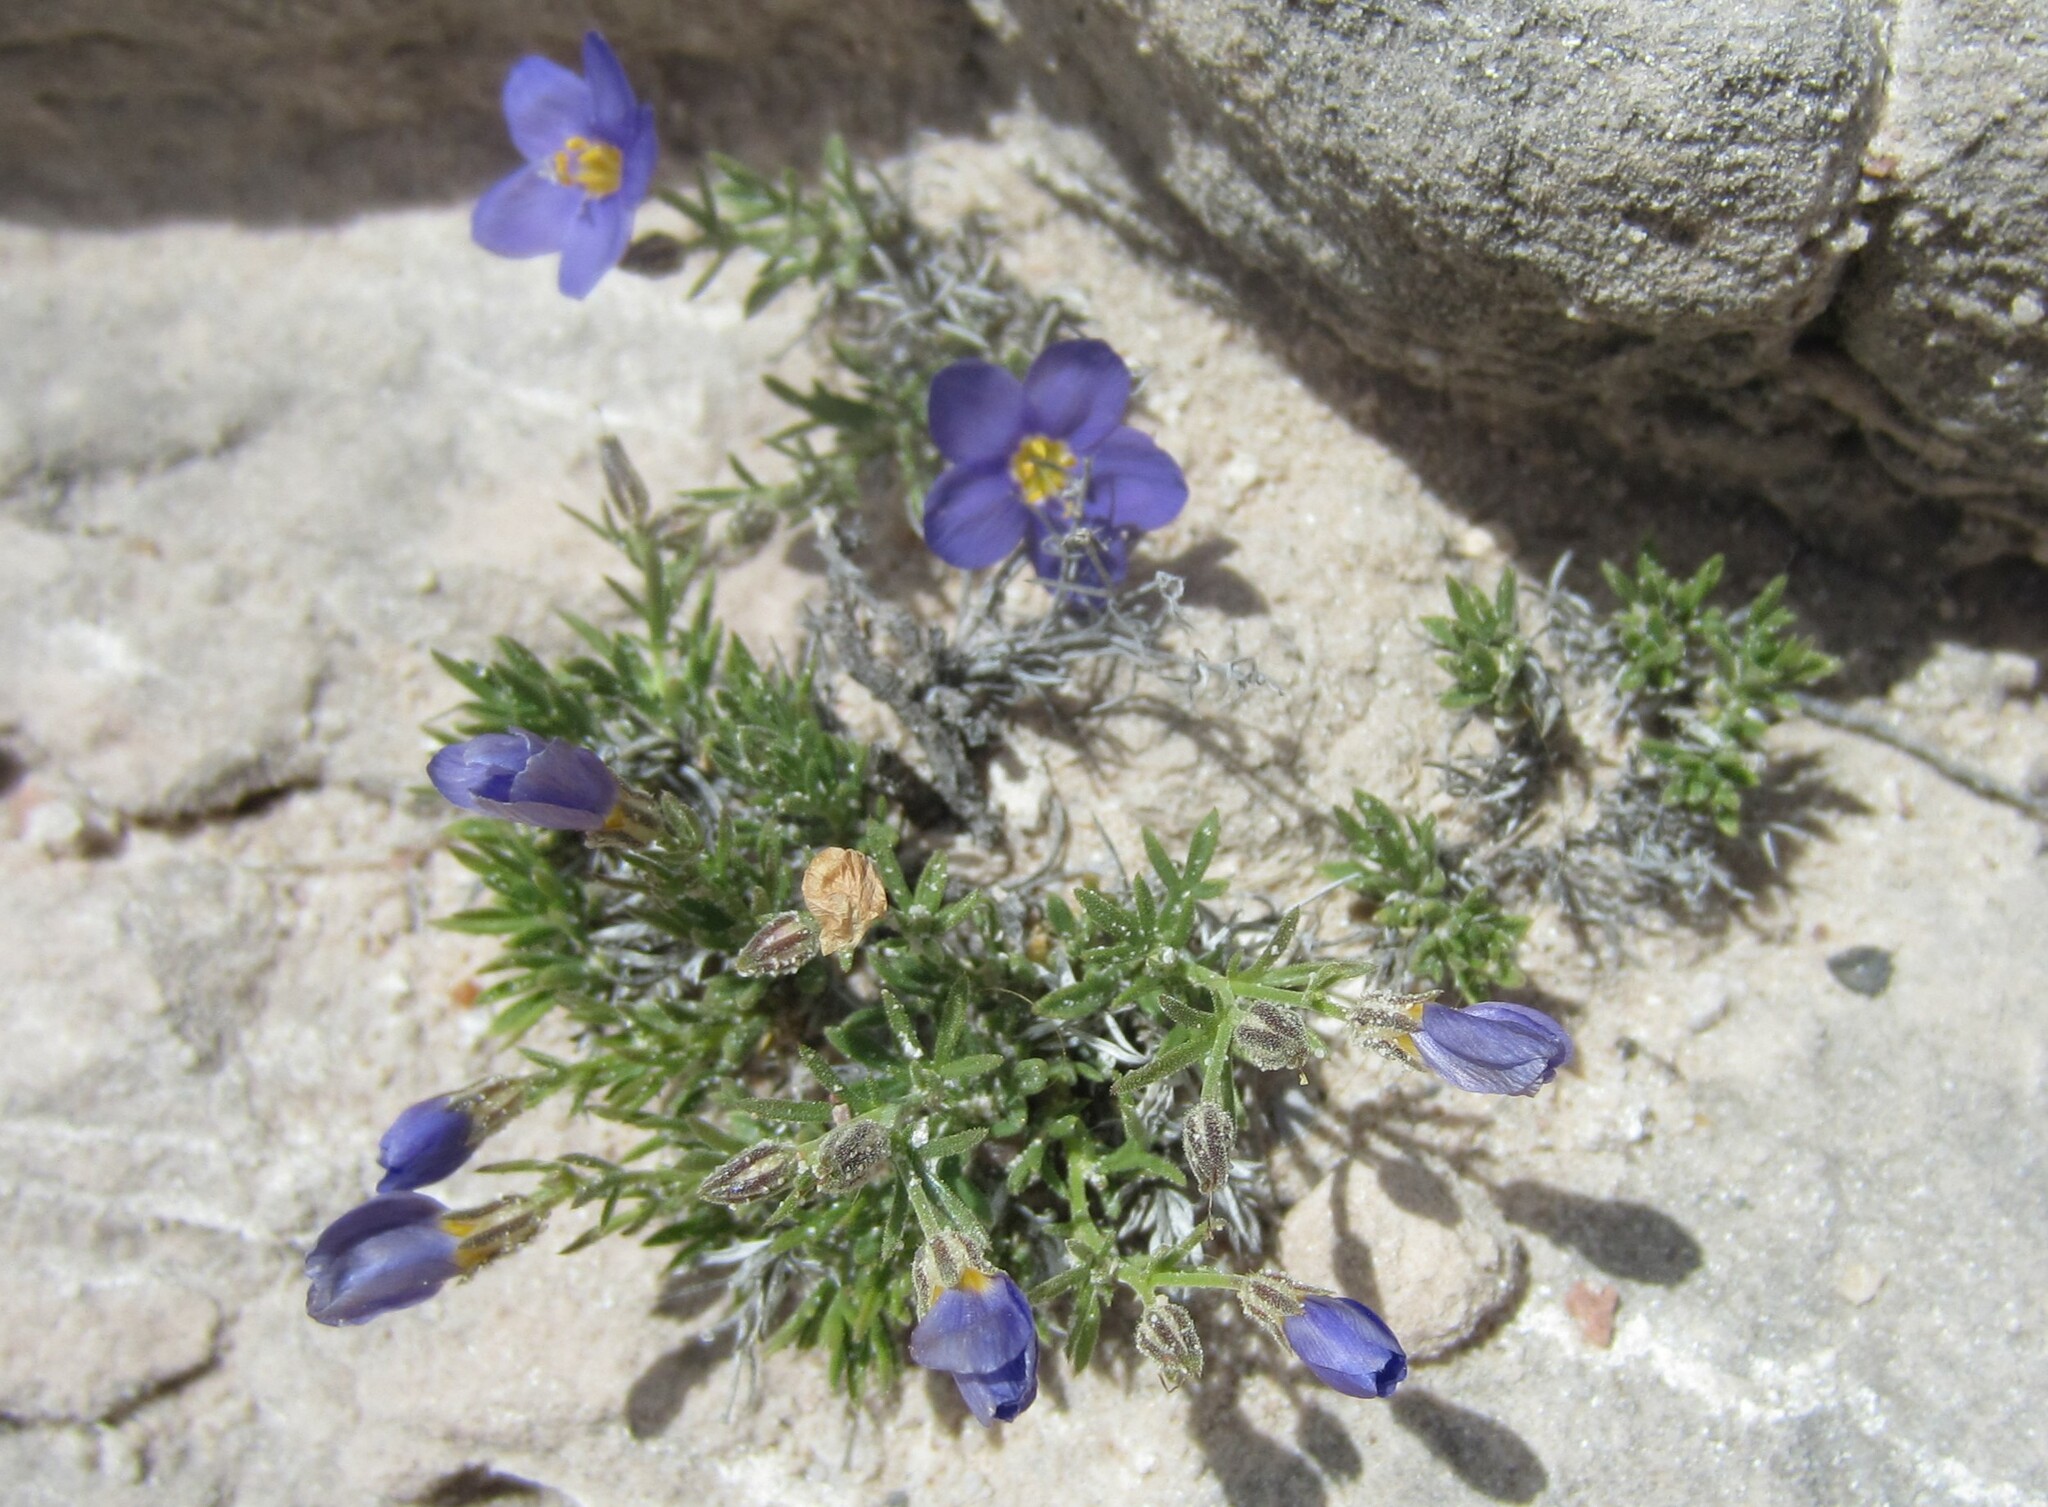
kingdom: Plantae
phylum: Tracheophyta
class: Magnoliopsida
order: Ericales
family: Polemoniaceae
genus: Giliastrum
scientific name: Giliastrum acerosum
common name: Bluebowls
